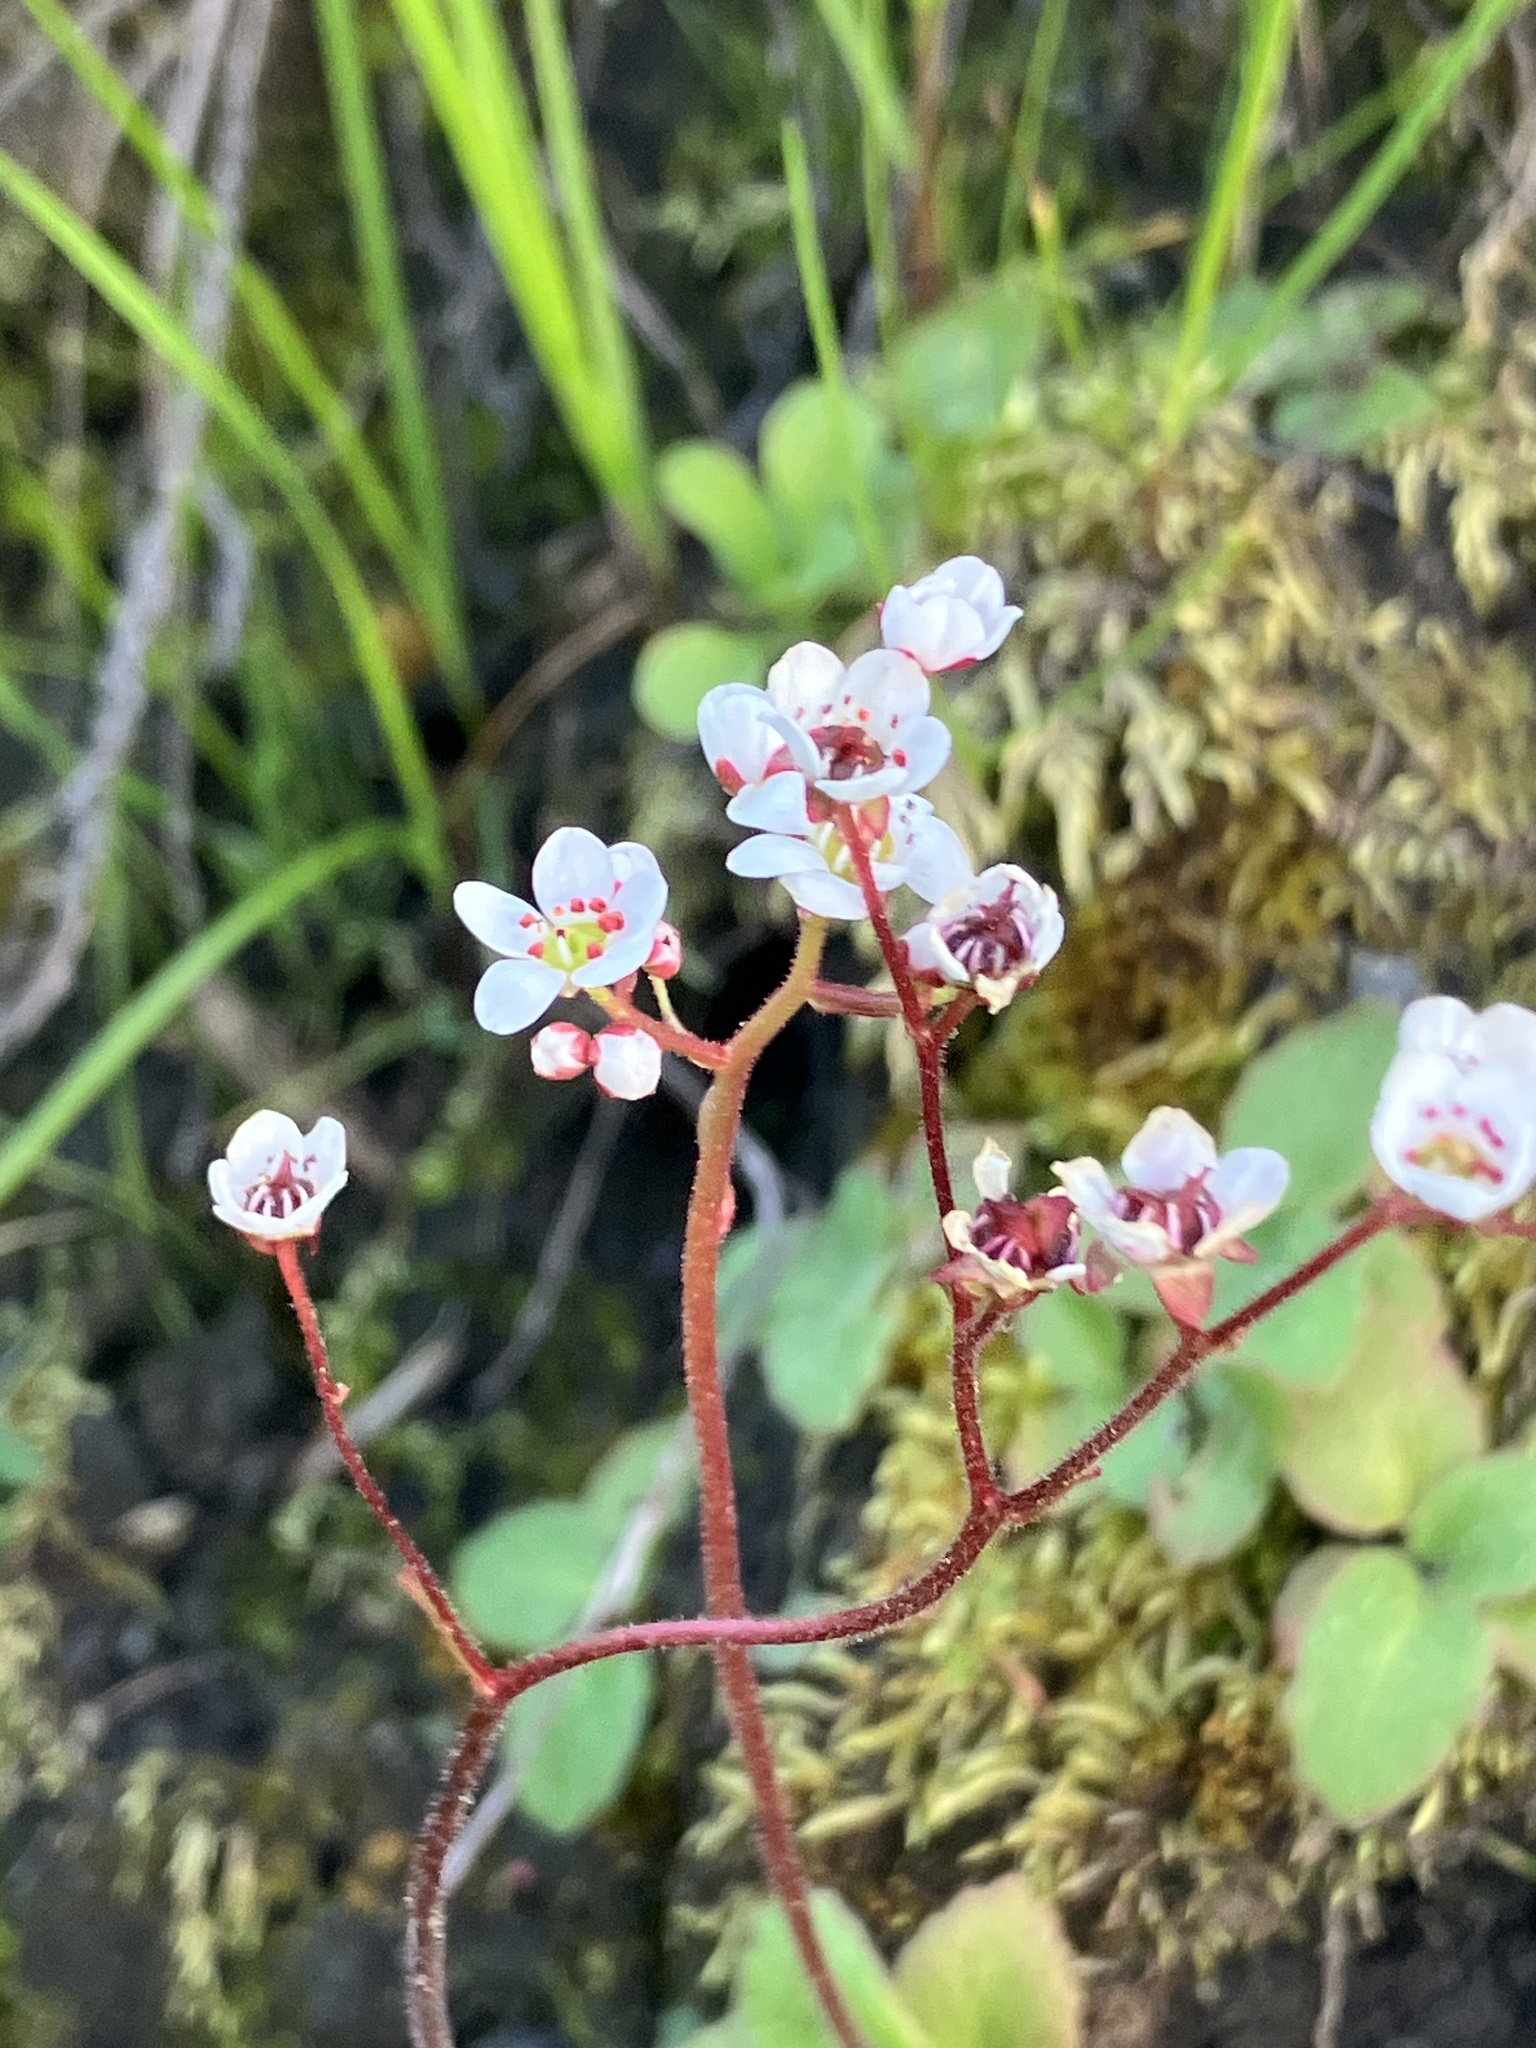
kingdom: Plantae
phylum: Tracheophyta
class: Magnoliopsida
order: Saxifragales
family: Saxifragaceae
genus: Micranthes
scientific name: Micranthes californica
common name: California saxifrage
